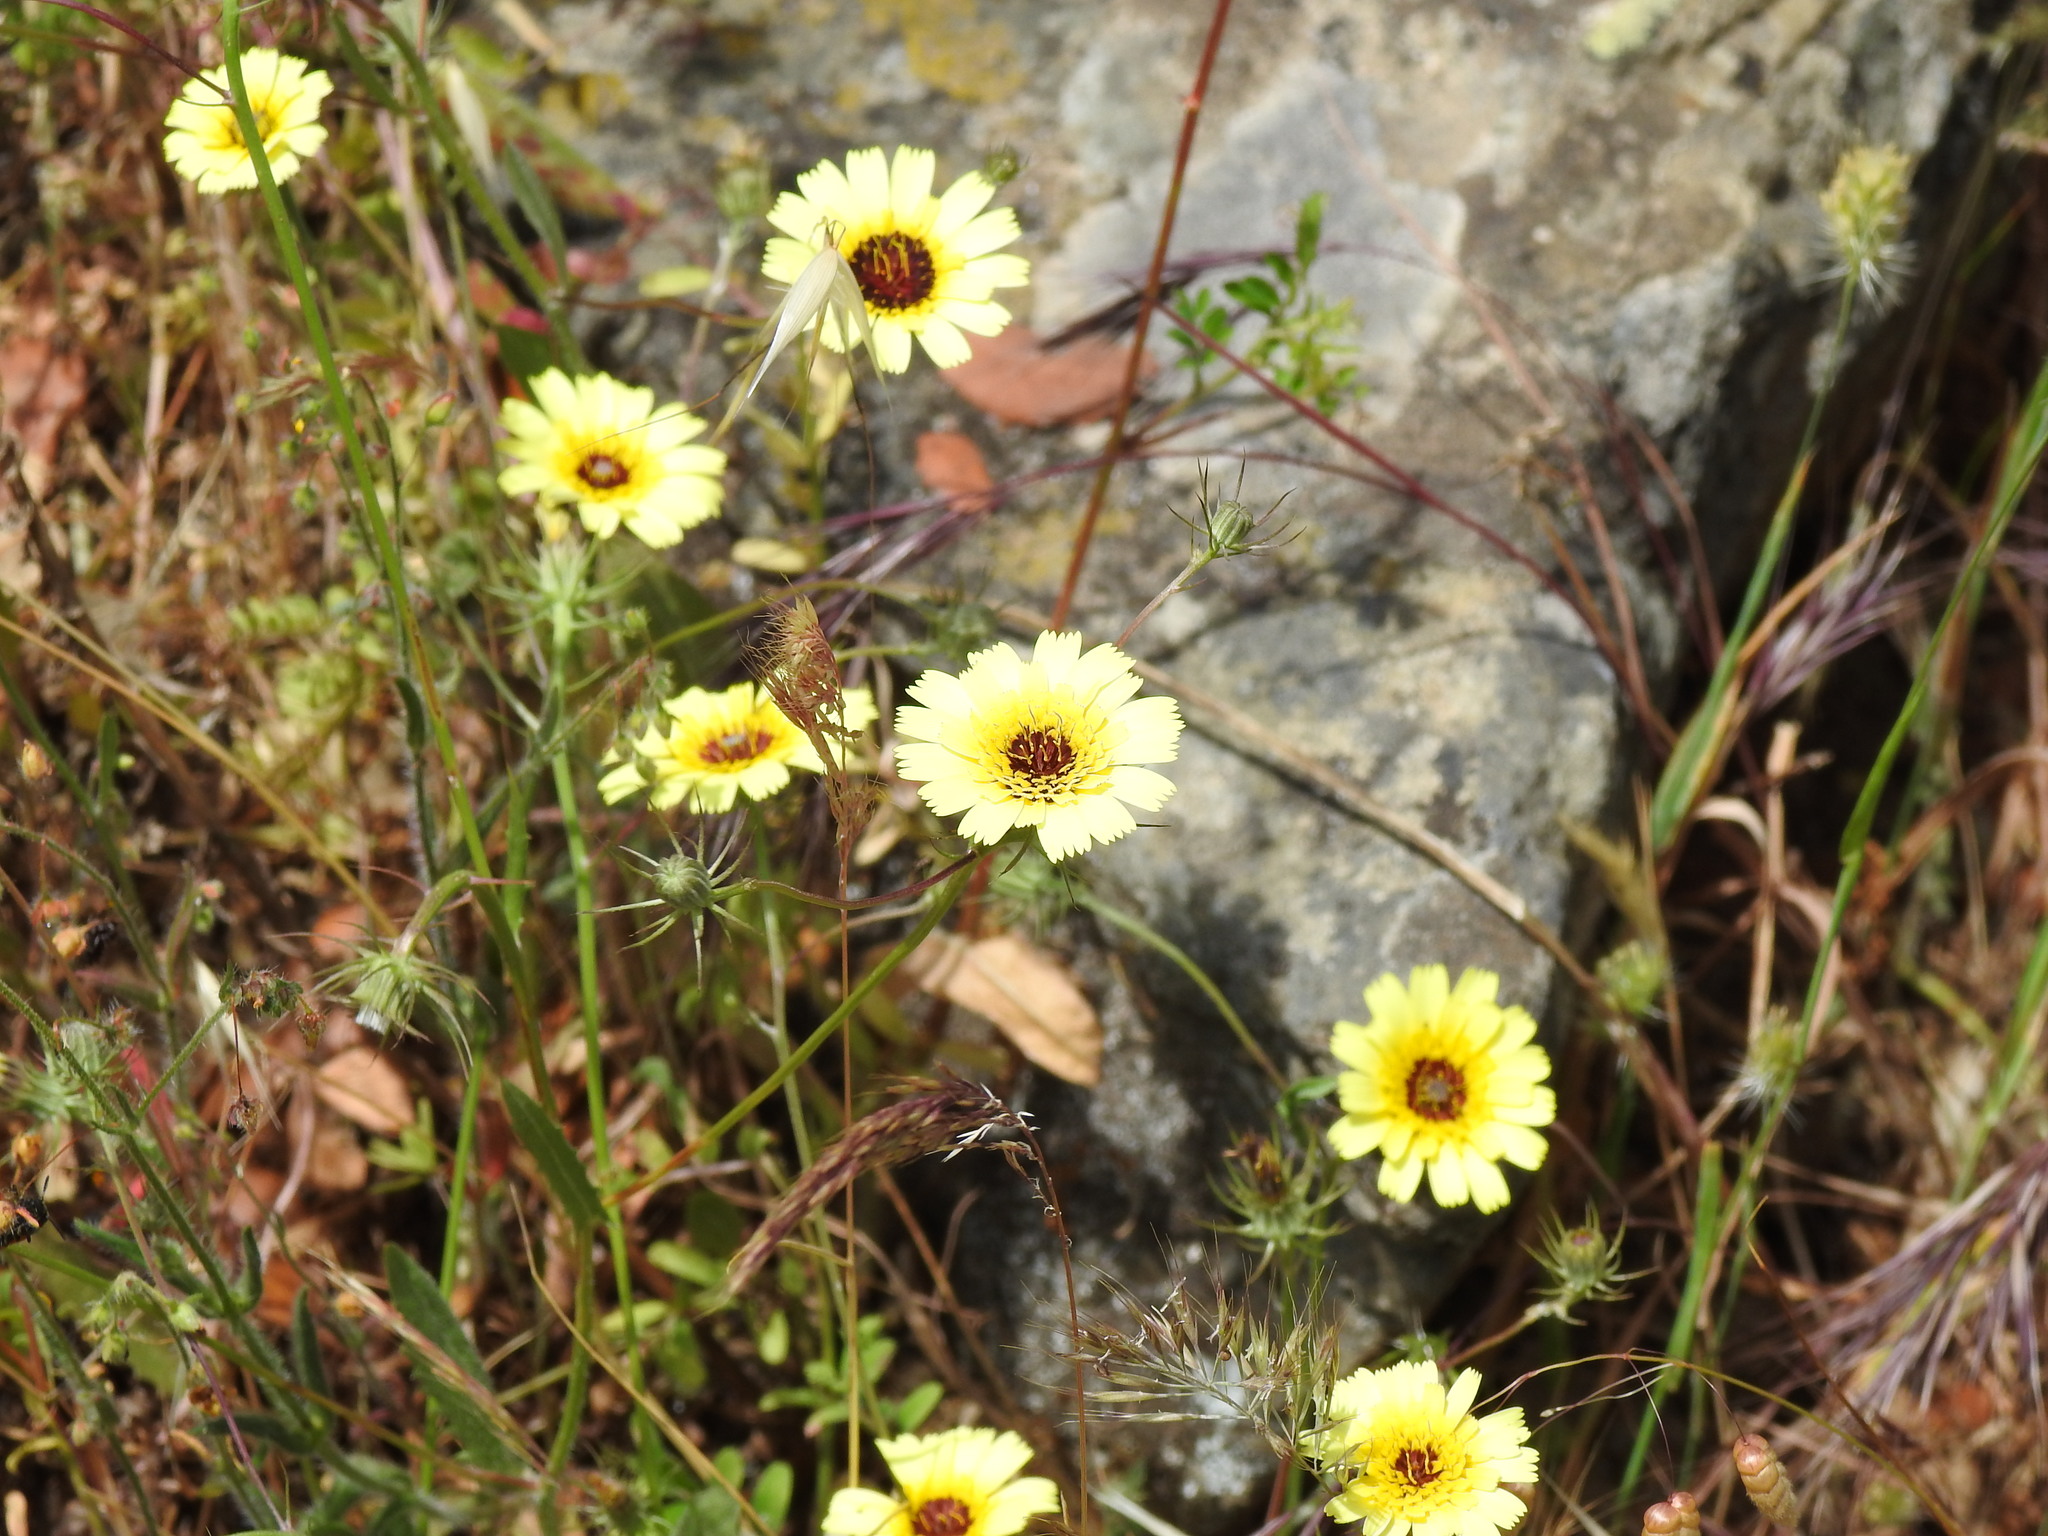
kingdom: Plantae
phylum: Tracheophyta
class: Magnoliopsida
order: Asterales
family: Asteraceae
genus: Tolpis
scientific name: Tolpis barbata
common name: Yellow hawkweed
